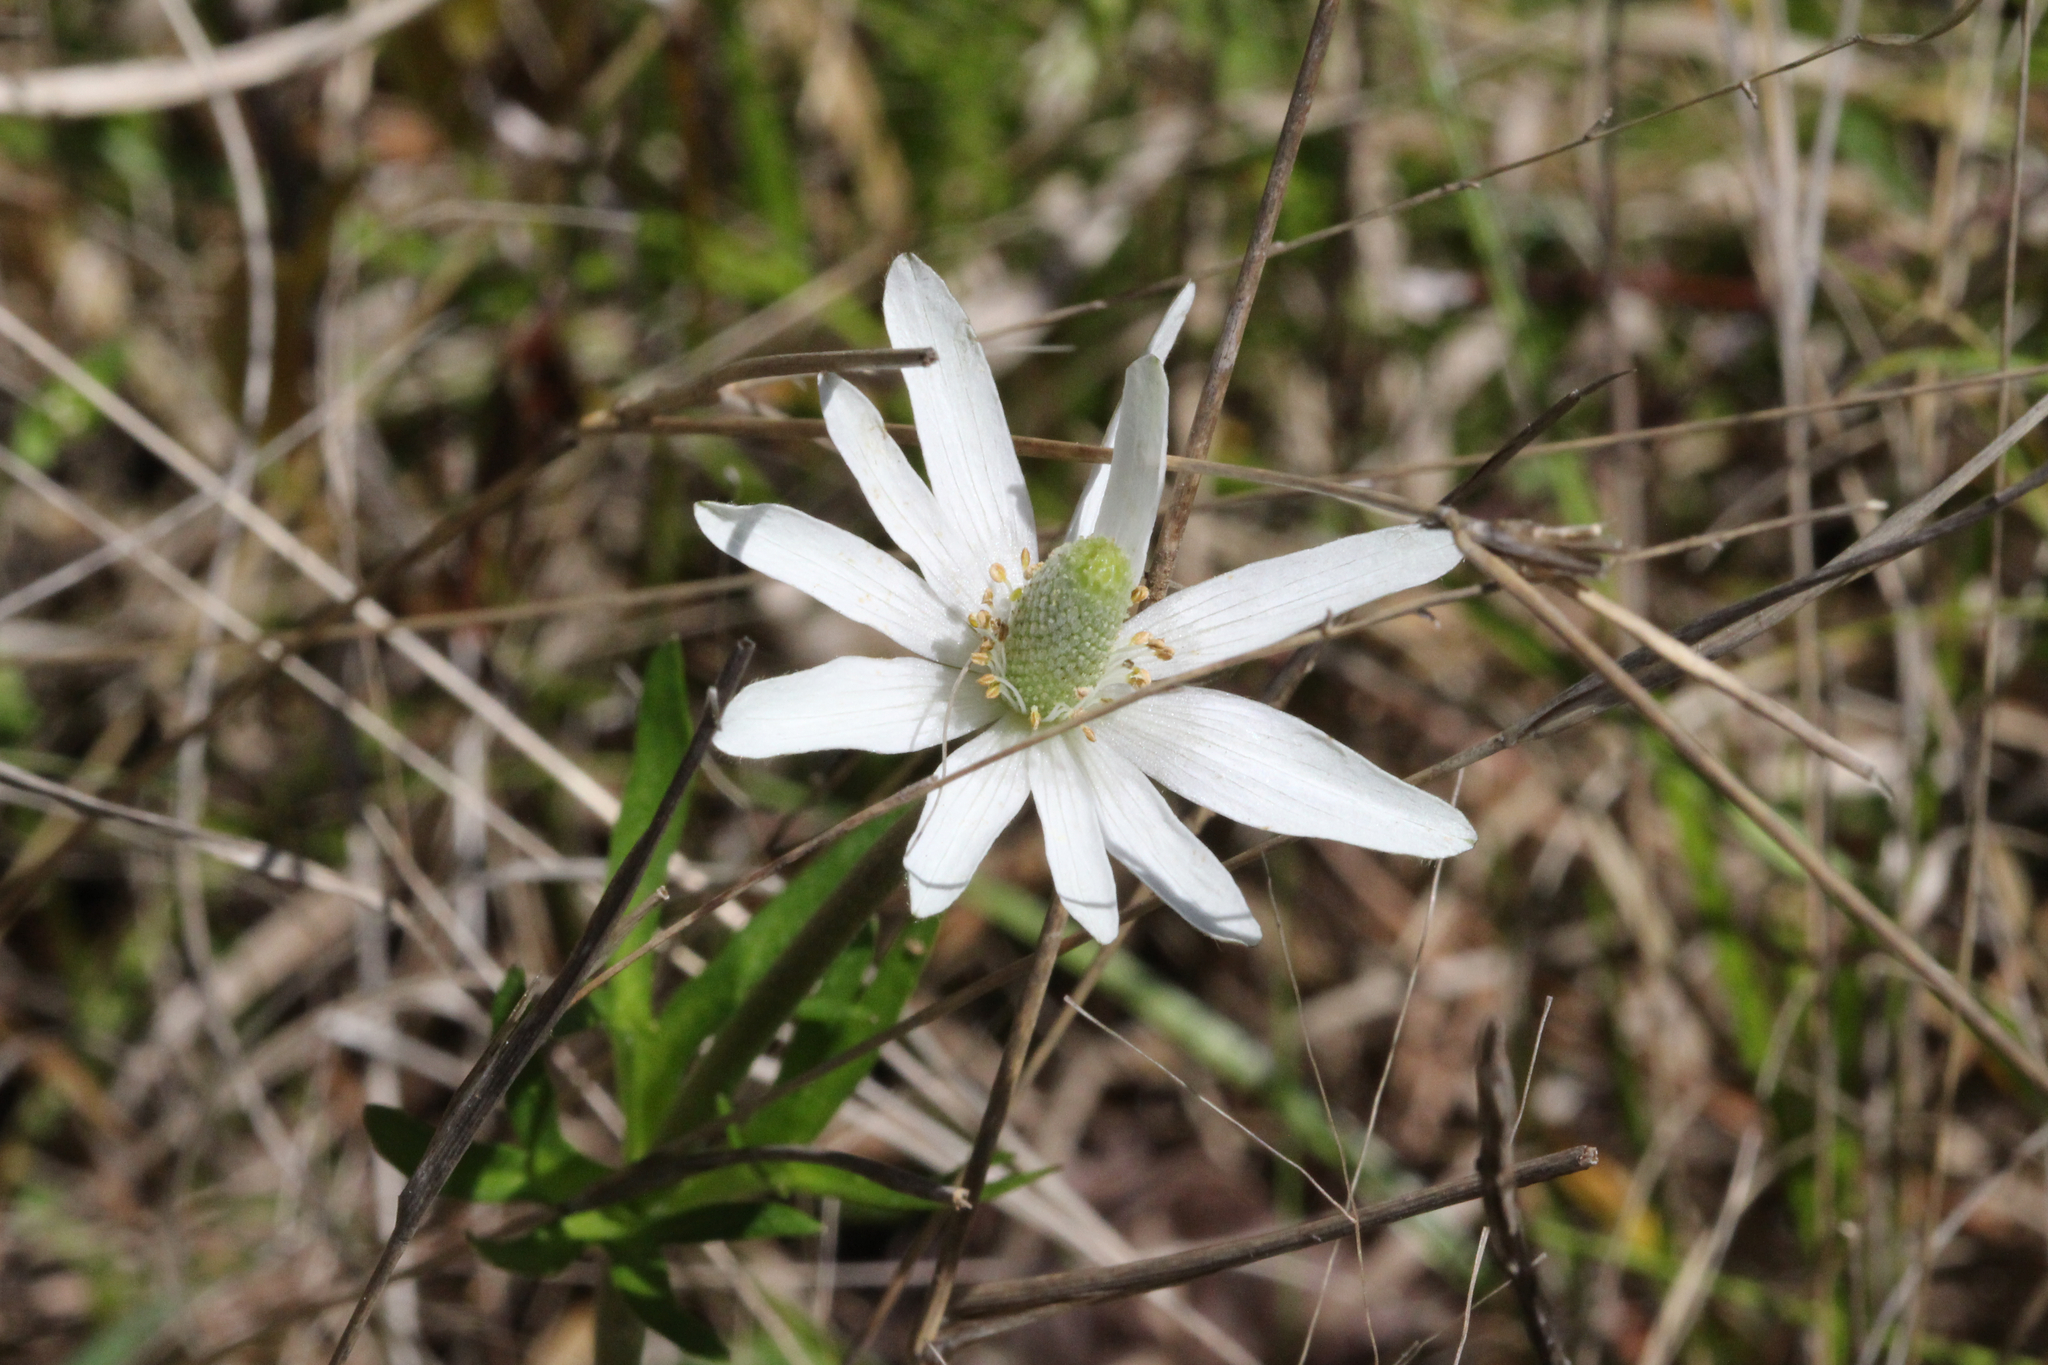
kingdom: Plantae
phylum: Tracheophyta
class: Magnoliopsida
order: Ranunculales
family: Ranunculaceae
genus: Anemone
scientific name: Anemone berlandieri
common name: Ten-petal anemone
